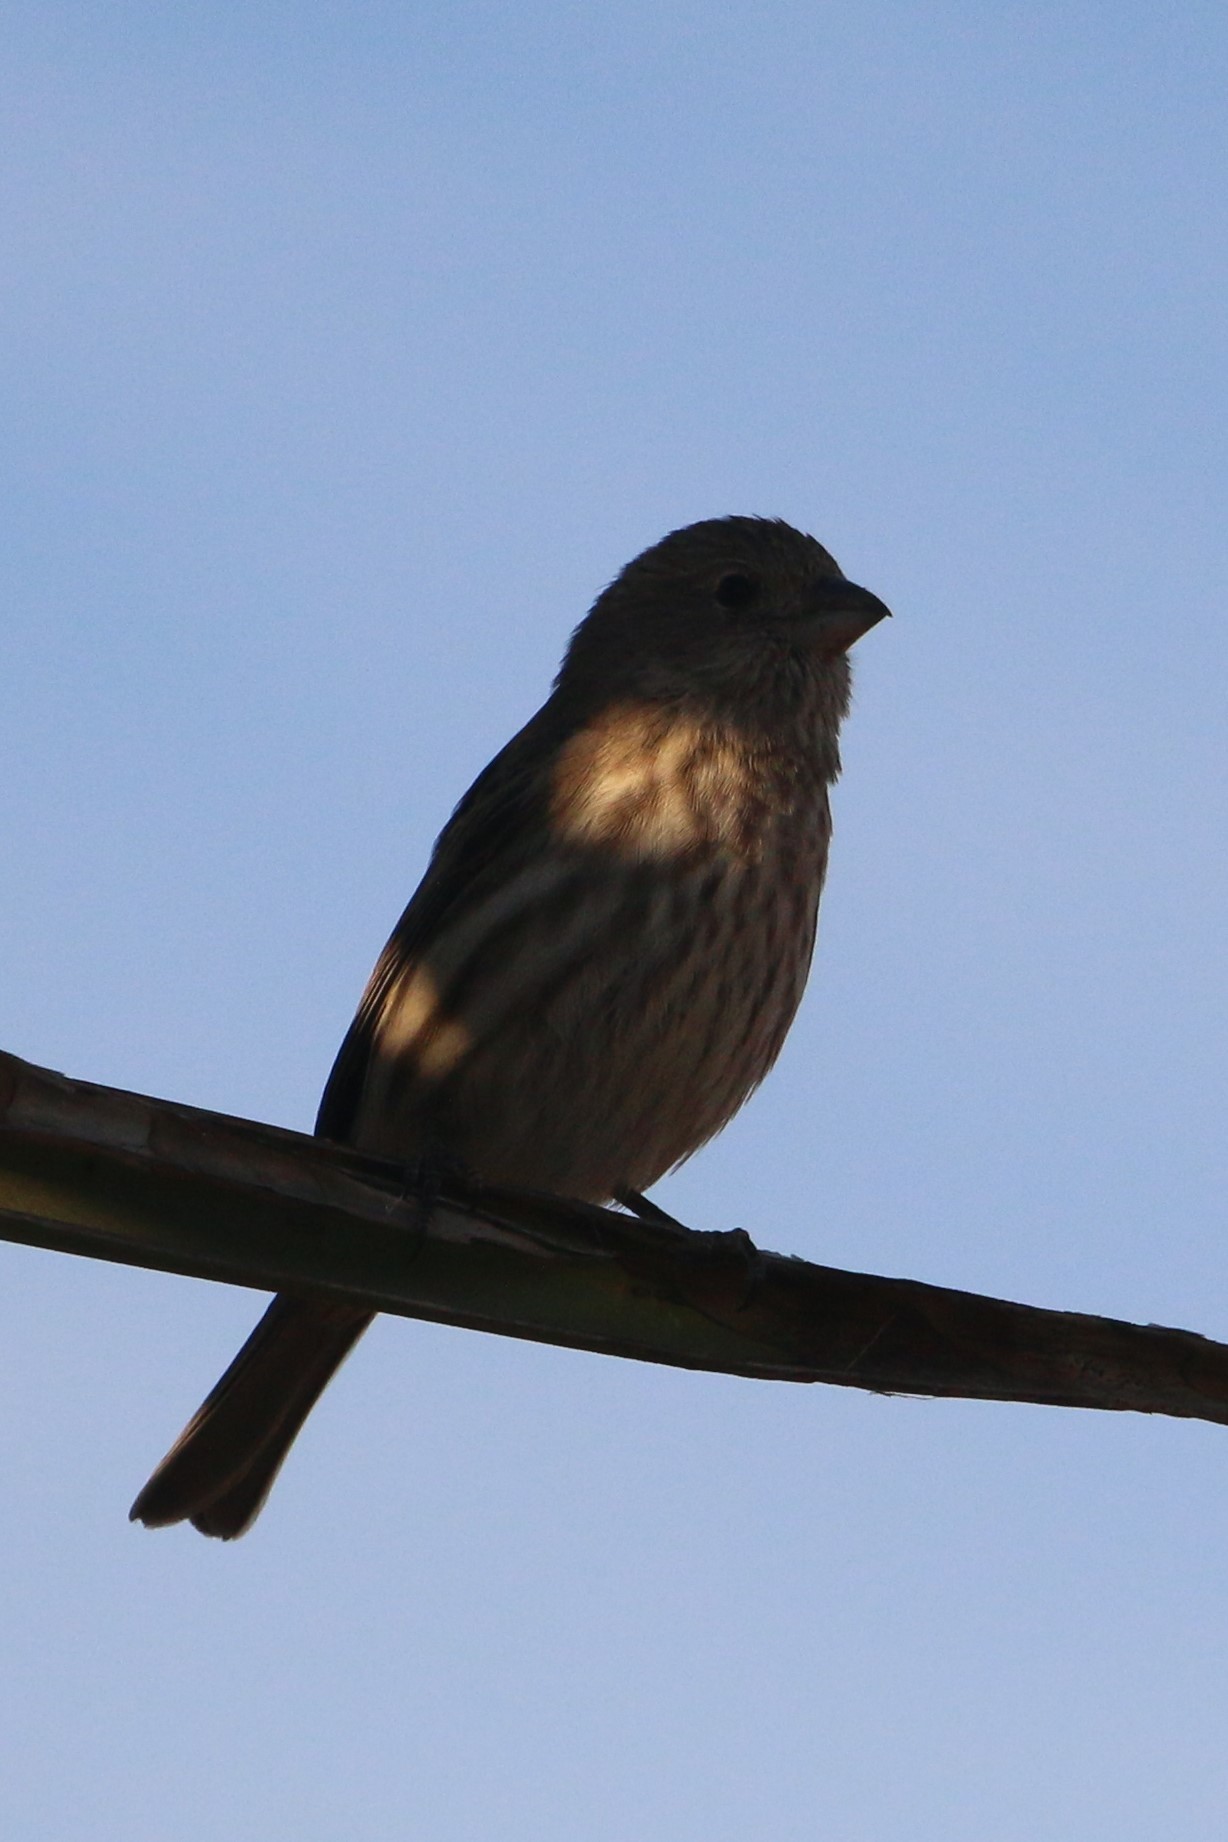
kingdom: Animalia
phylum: Chordata
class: Aves
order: Passeriformes
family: Fringillidae
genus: Haemorhous
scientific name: Haemorhous mexicanus
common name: House finch
